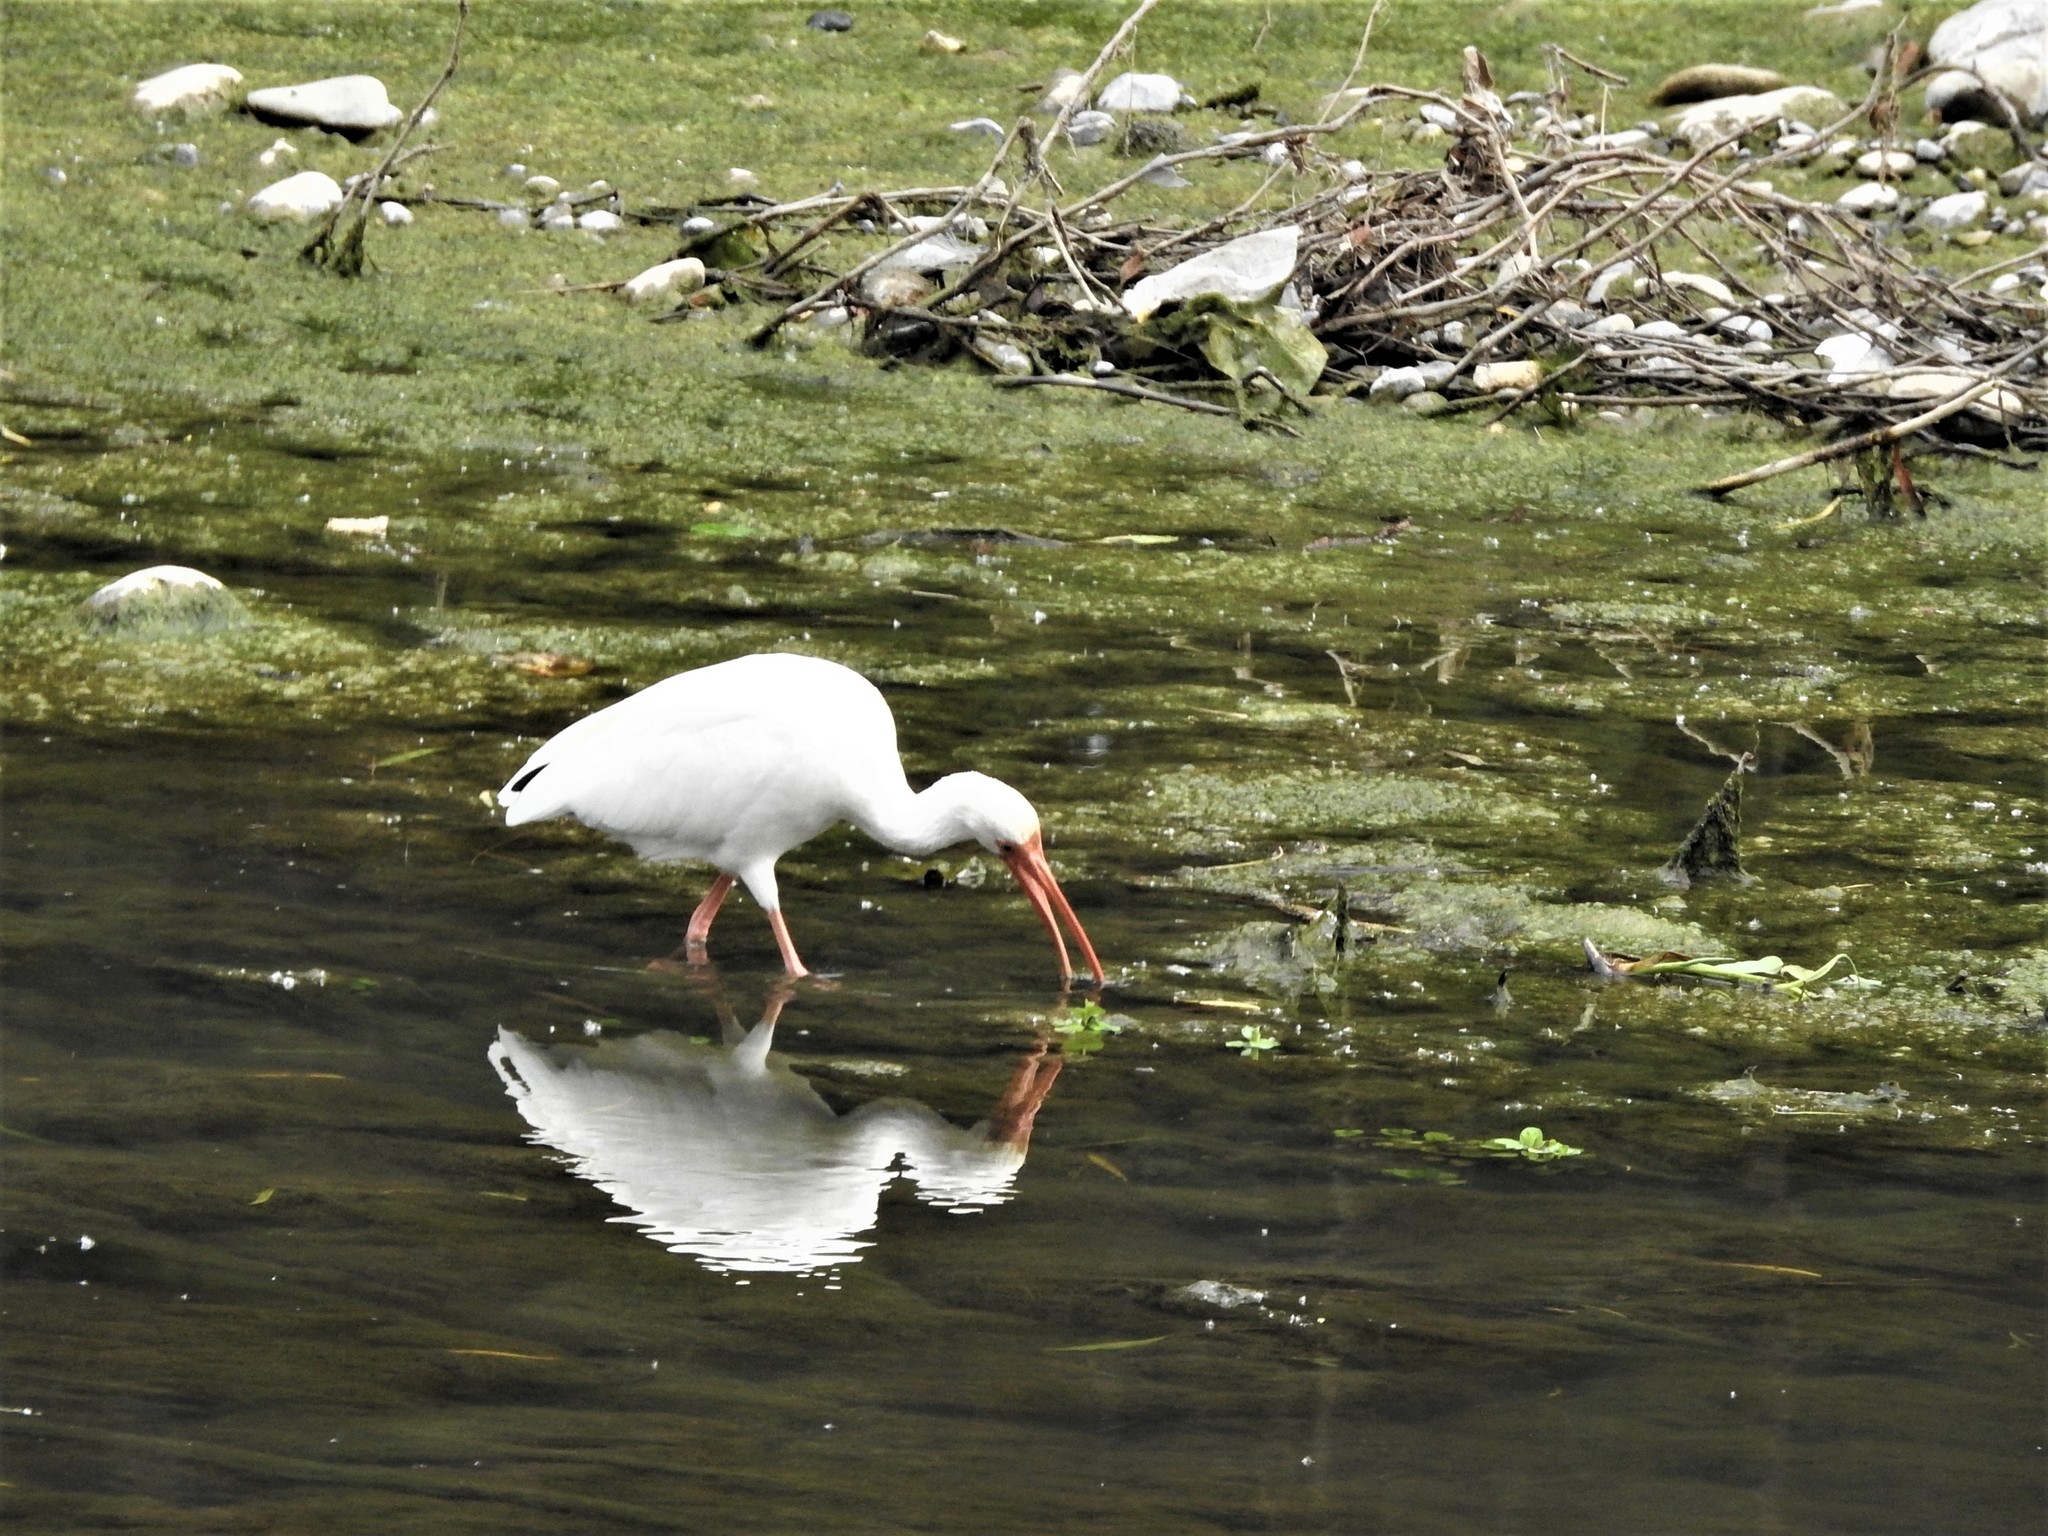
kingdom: Animalia
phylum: Chordata
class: Aves
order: Pelecaniformes
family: Threskiornithidae
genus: Eudocimus
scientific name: Eudocimus albus
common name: White ibis
